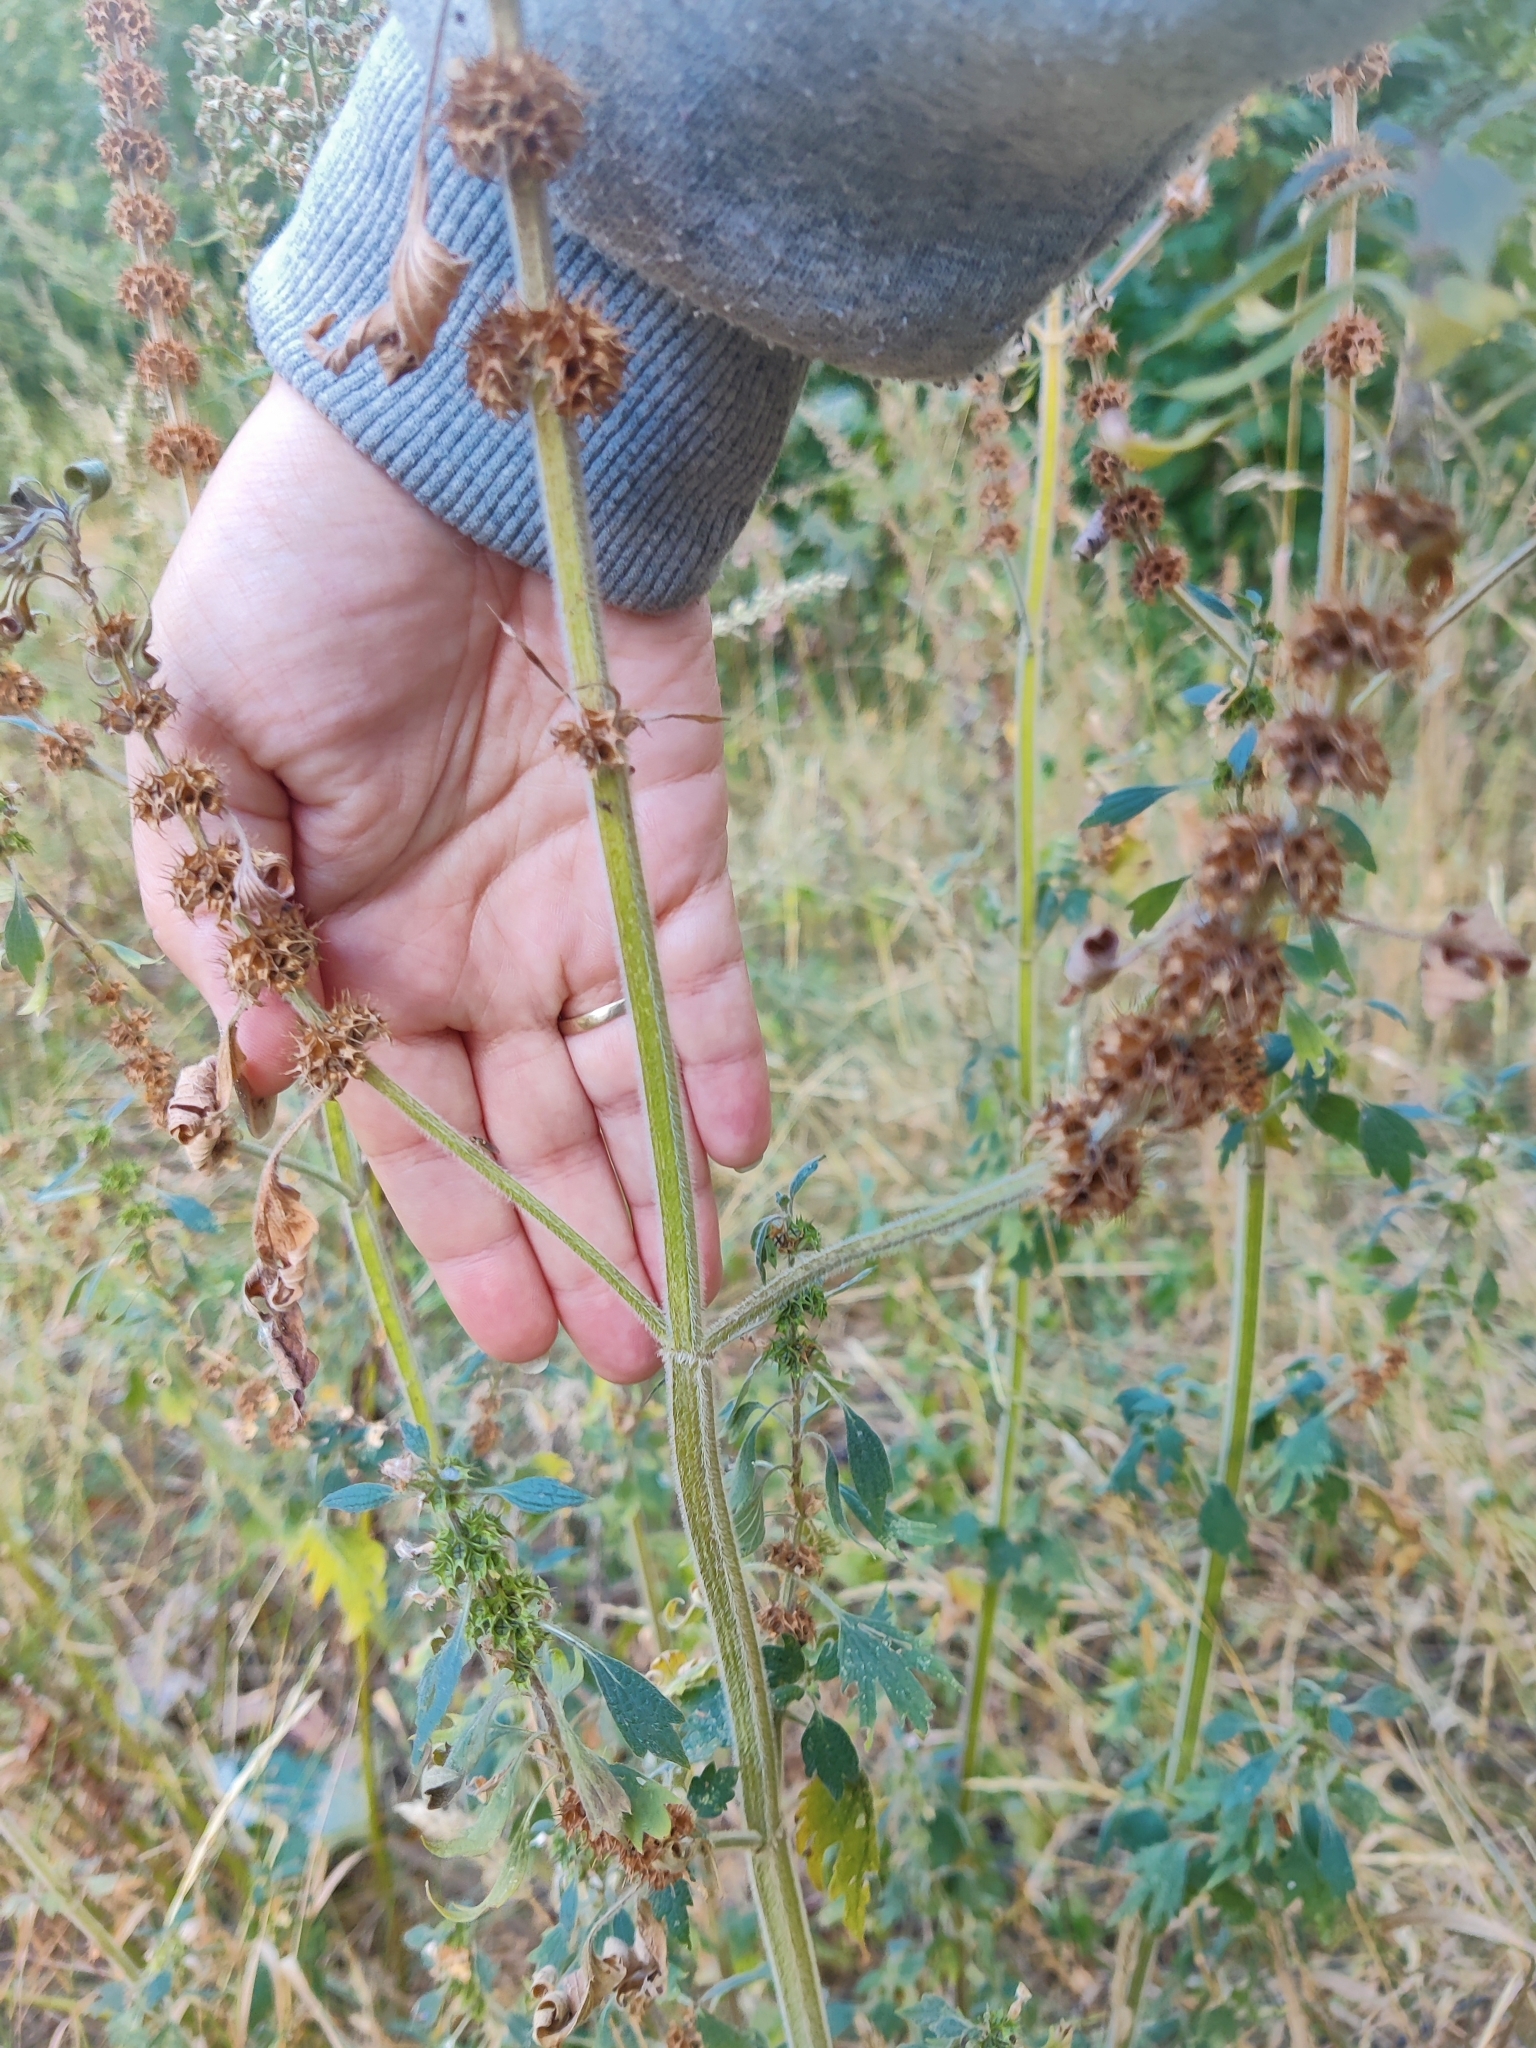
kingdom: Plantae
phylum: Tracheophyta
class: Magnoliopsida
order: Lamiales
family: Lamiaceae
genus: Leonurus
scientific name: Leonurus quinquelobatus
